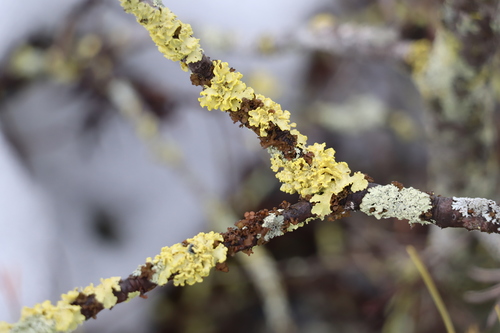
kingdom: Fungi
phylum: Ascomycota
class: Lecanoromycetes
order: Lecanorales
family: Parmeliaceae
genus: Vulpicida
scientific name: Vulpicida pinastri
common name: Powdered sunshine lichen
